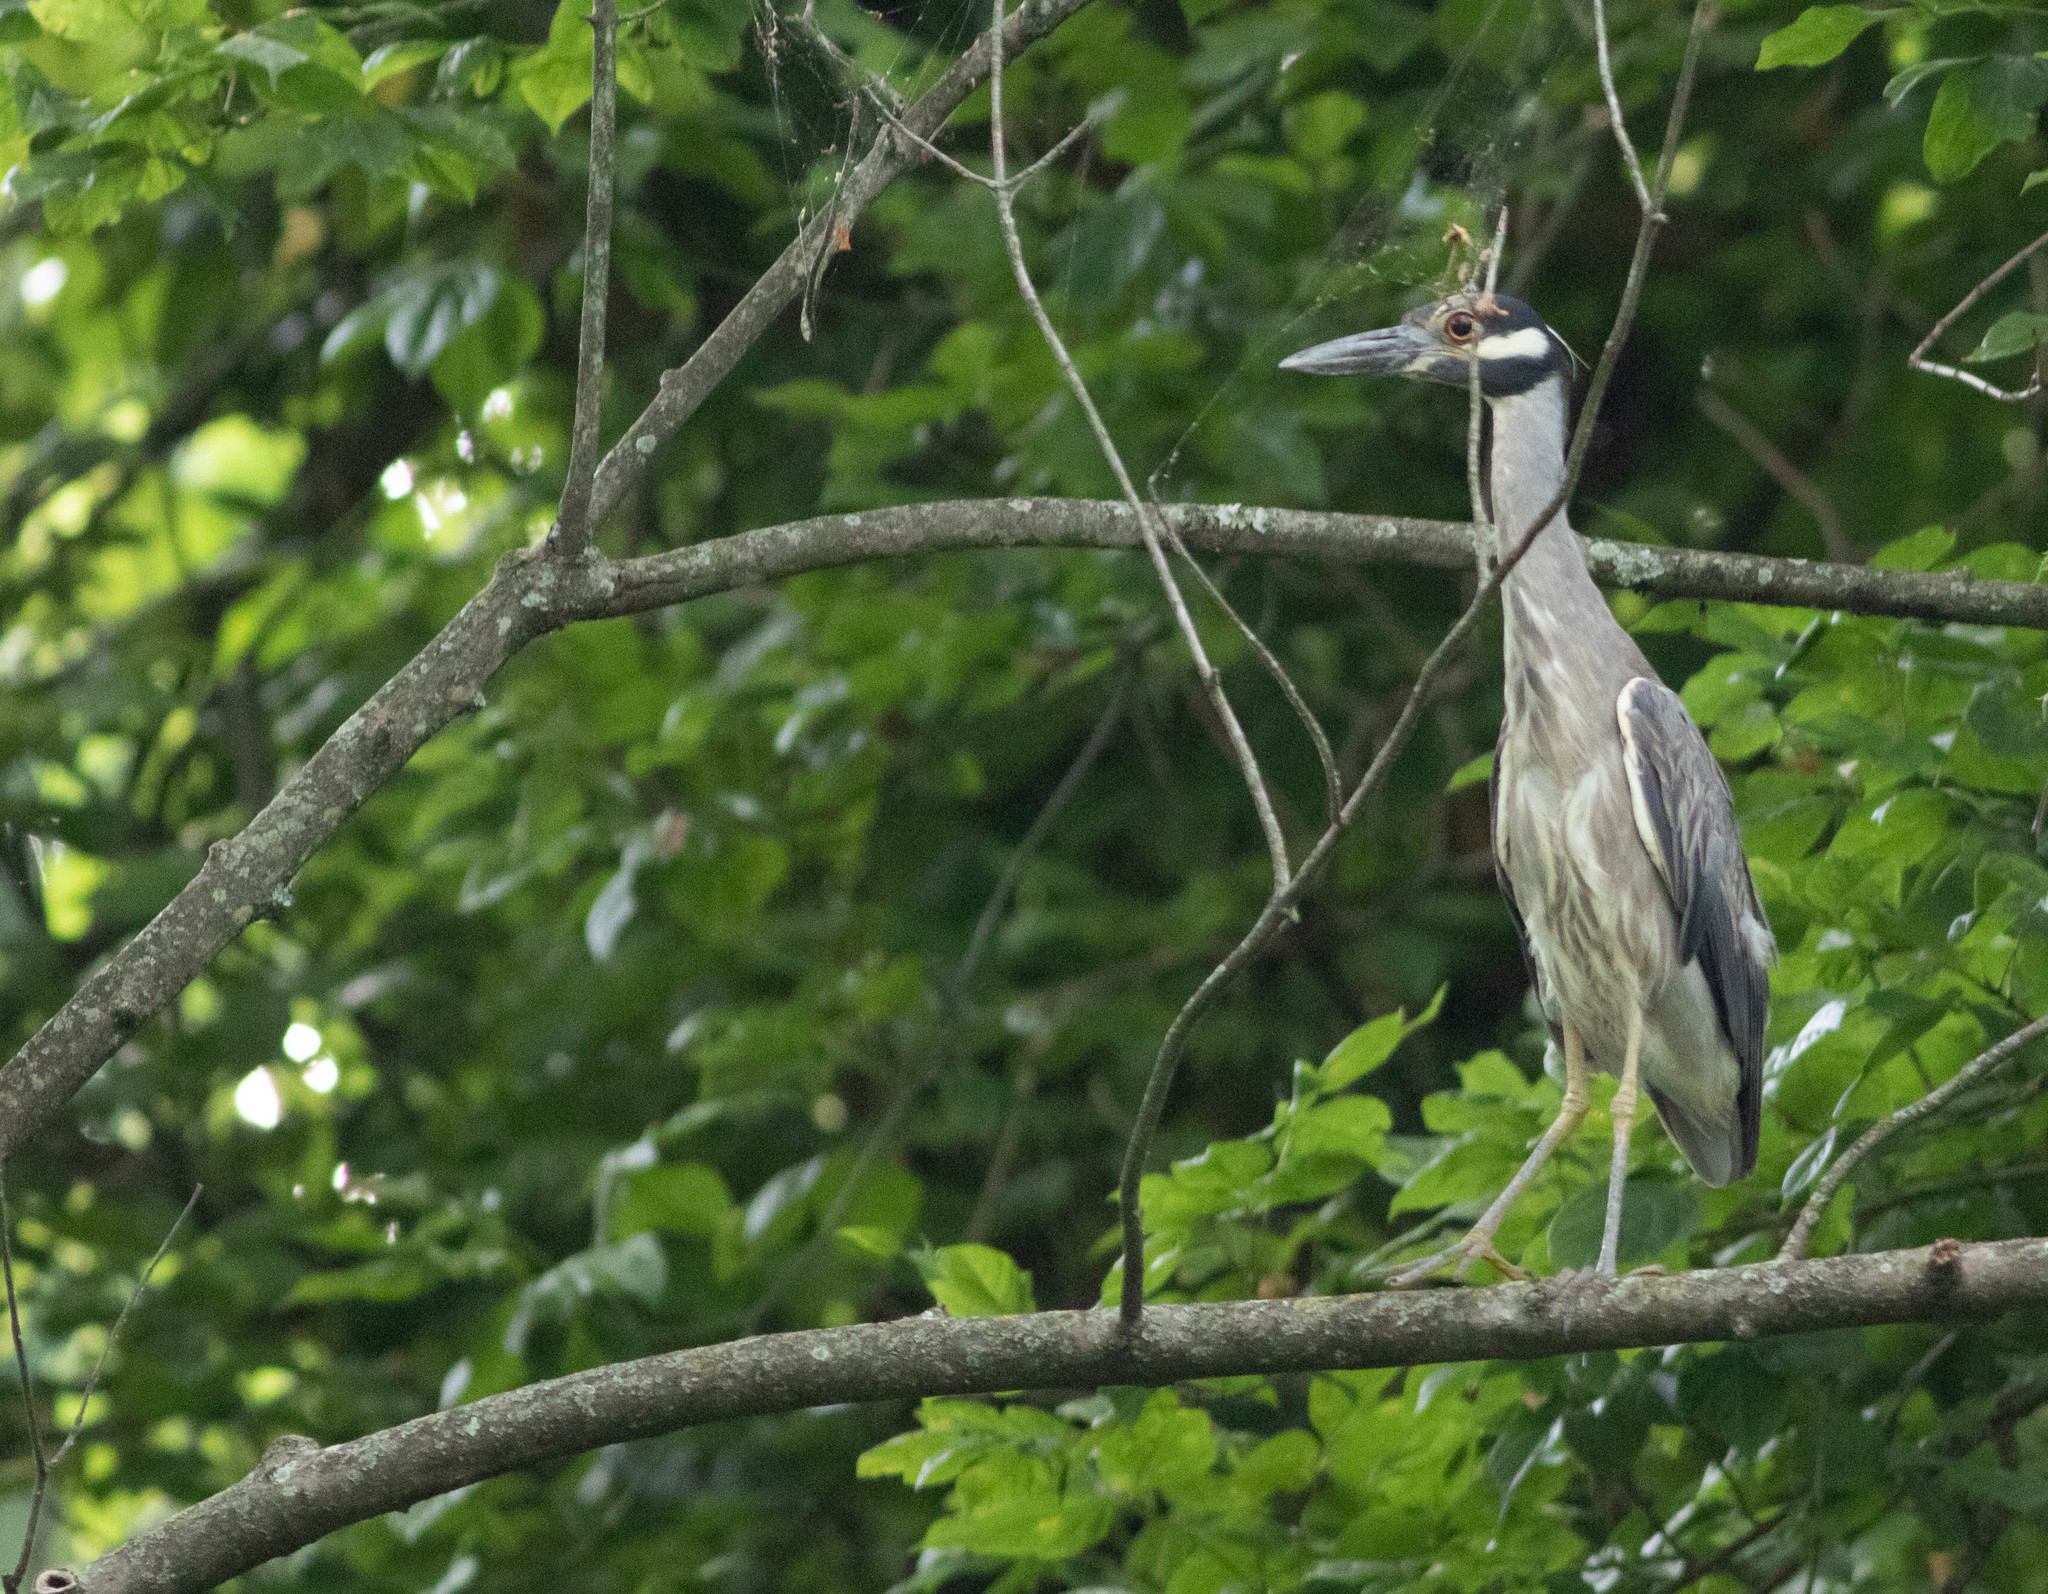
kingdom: Animalia
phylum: Chordata
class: Aves
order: Pelecaniformes
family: Ardeidae
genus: Nyctanassa
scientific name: Nyctanassa violacea
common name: Yellow-crowned night heron
